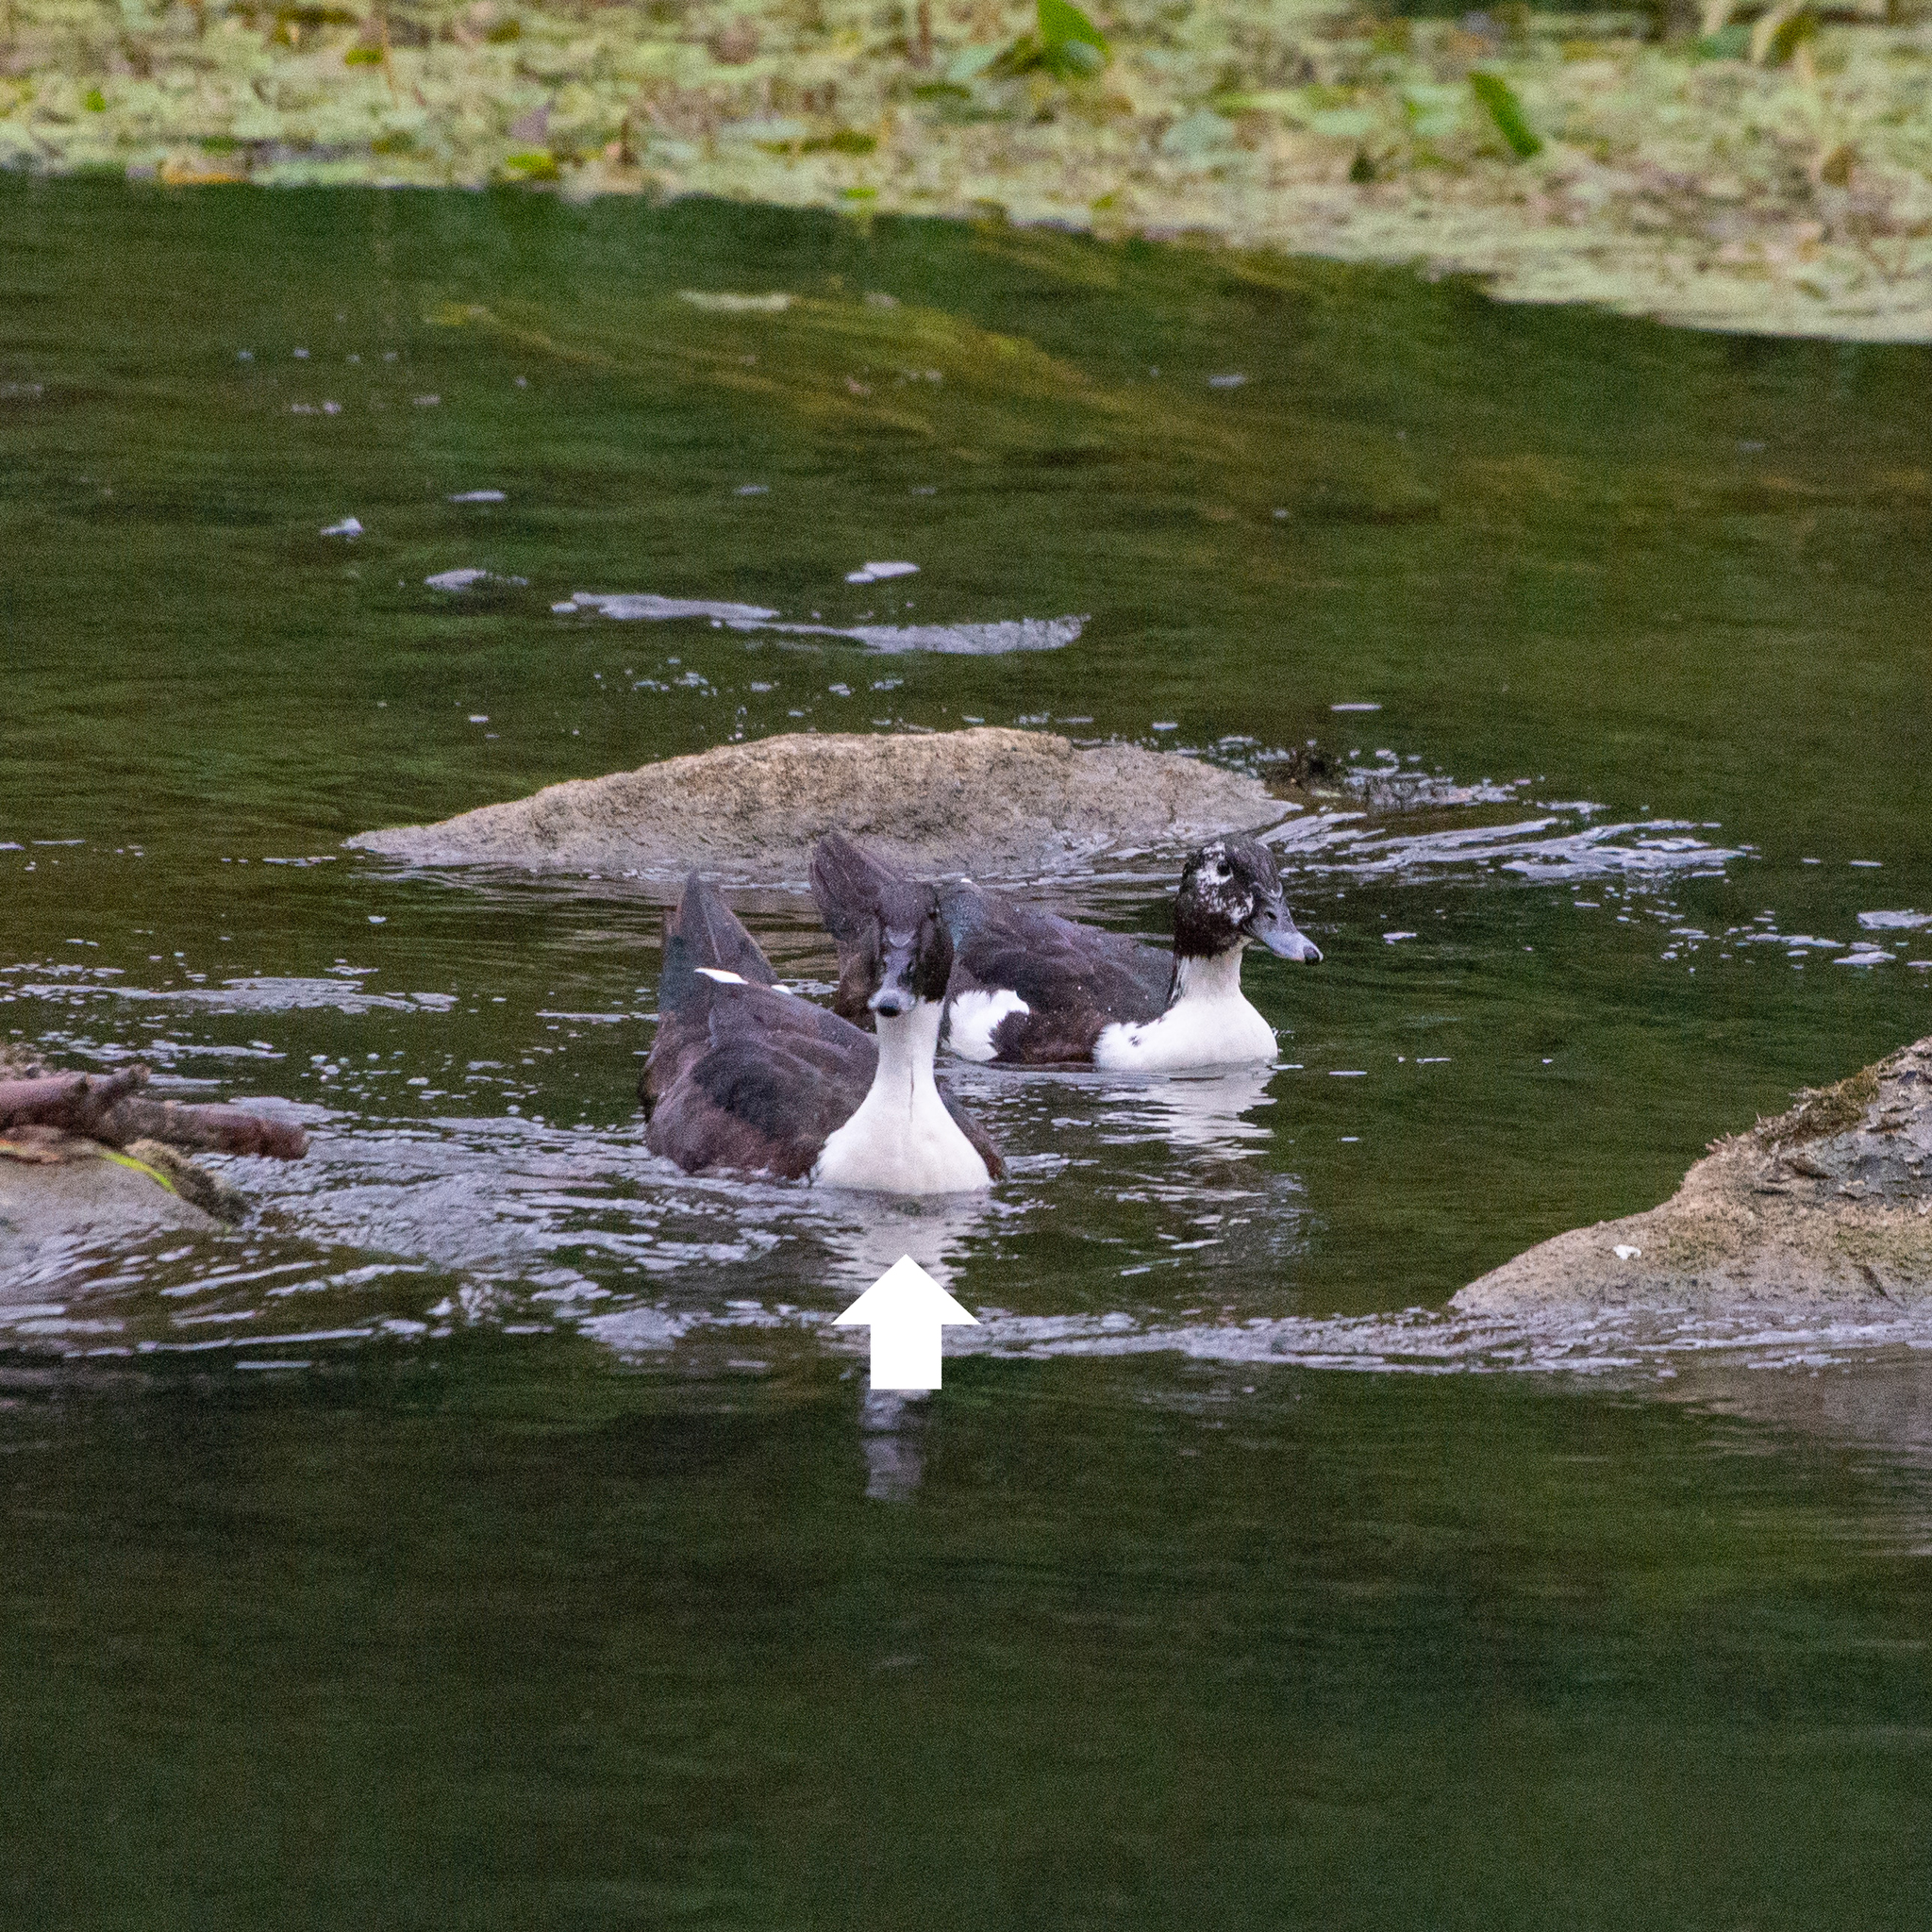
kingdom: Animalia
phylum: Chordata
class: Aves
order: Anseriformes
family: Anatidae
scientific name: Anatidae
